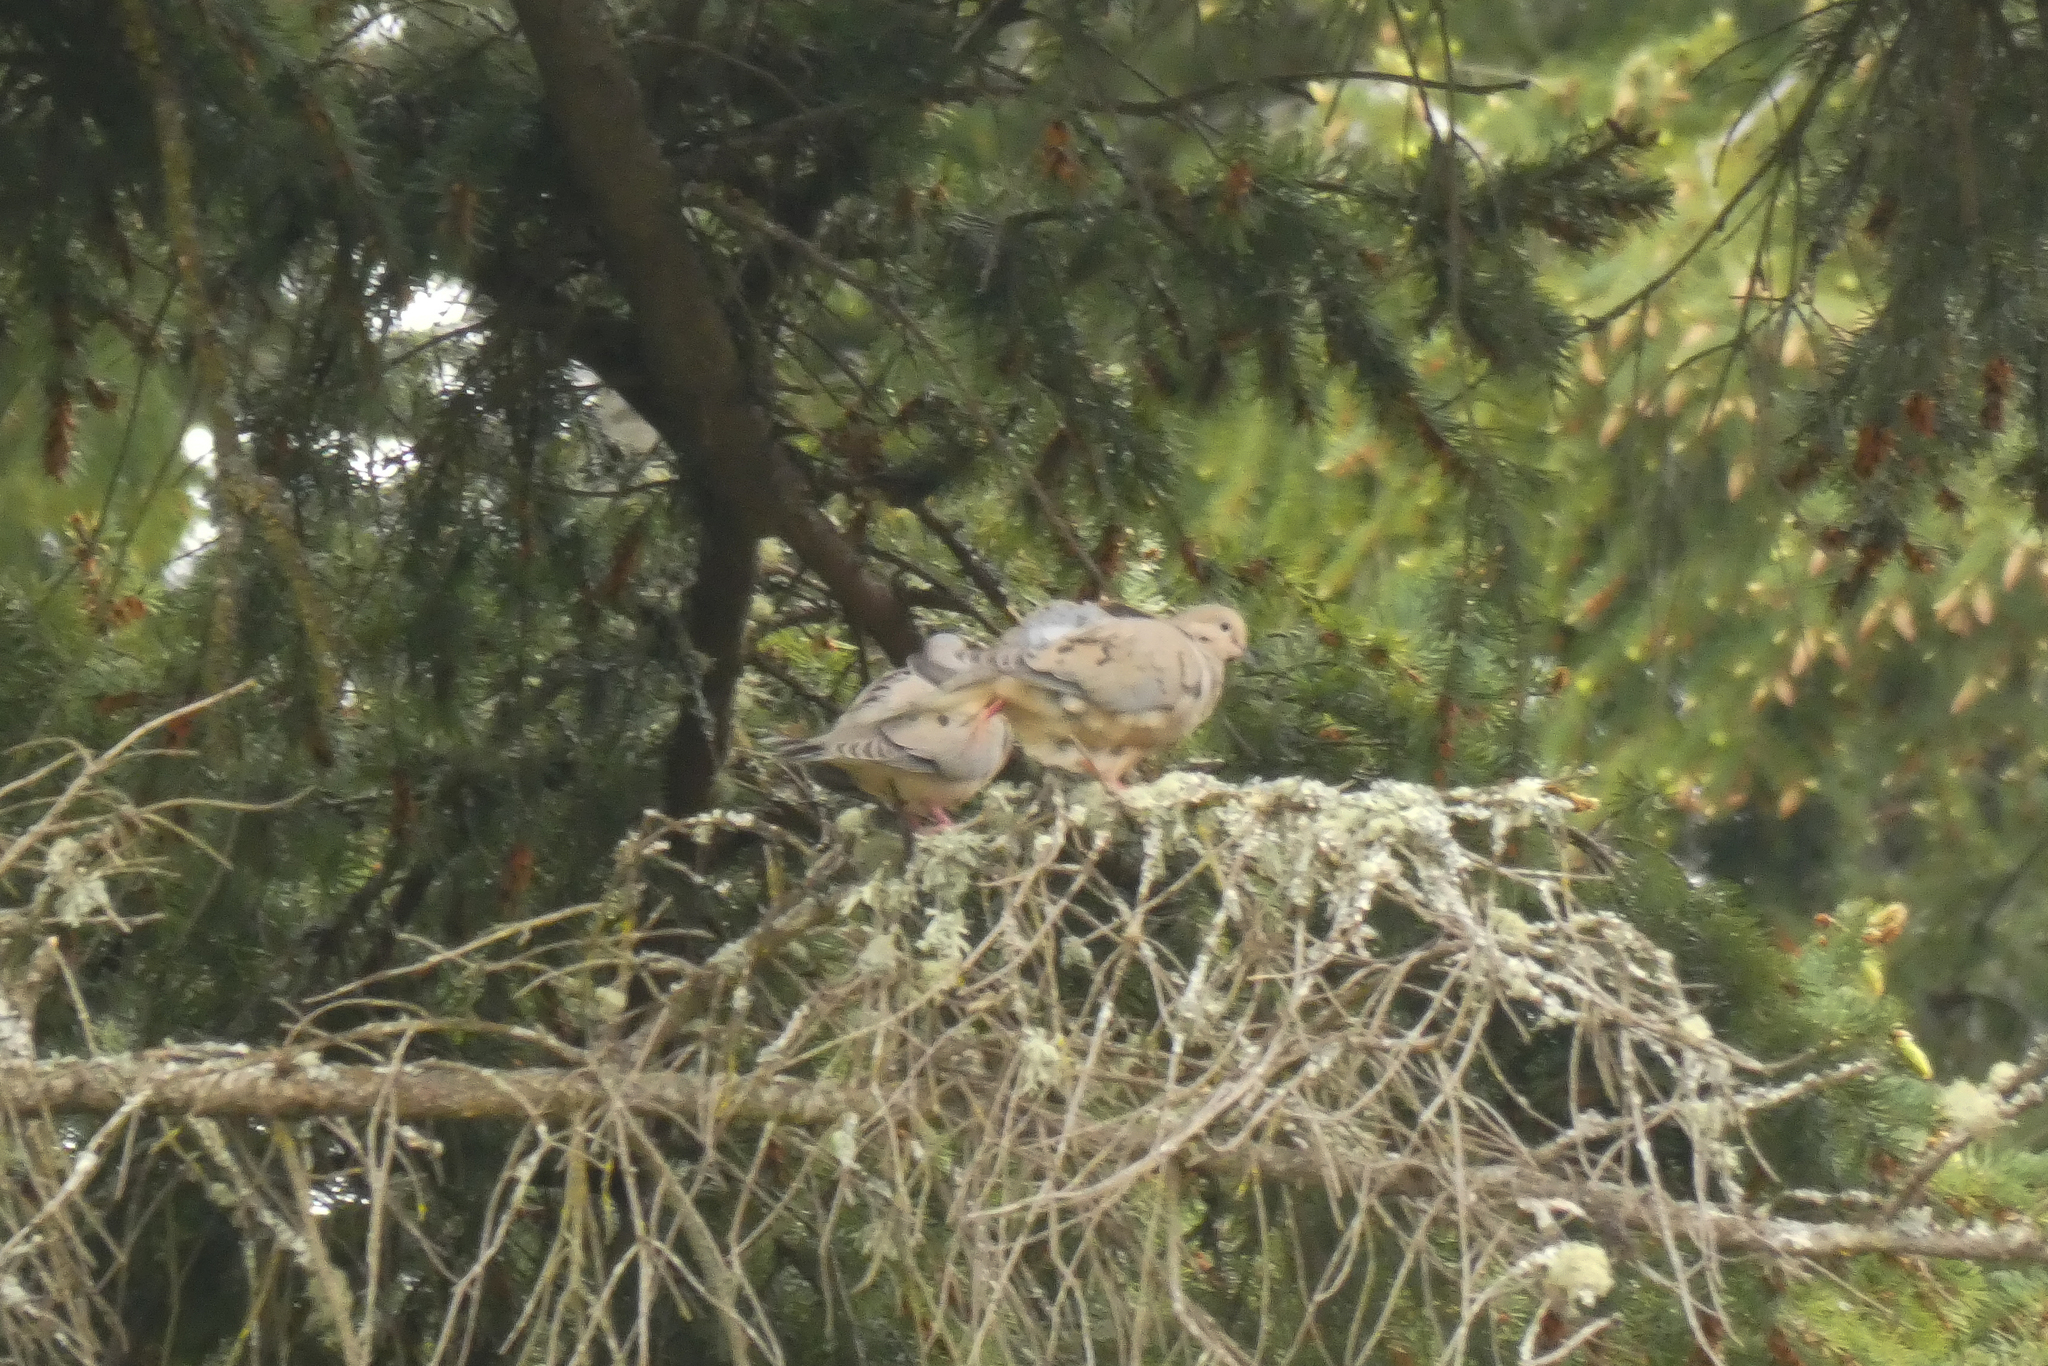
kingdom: Animalia
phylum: Chordata
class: Aves
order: Columbiformes
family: Columbidae
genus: Zenaida
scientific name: Zenaida macroura
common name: Mourning dove
